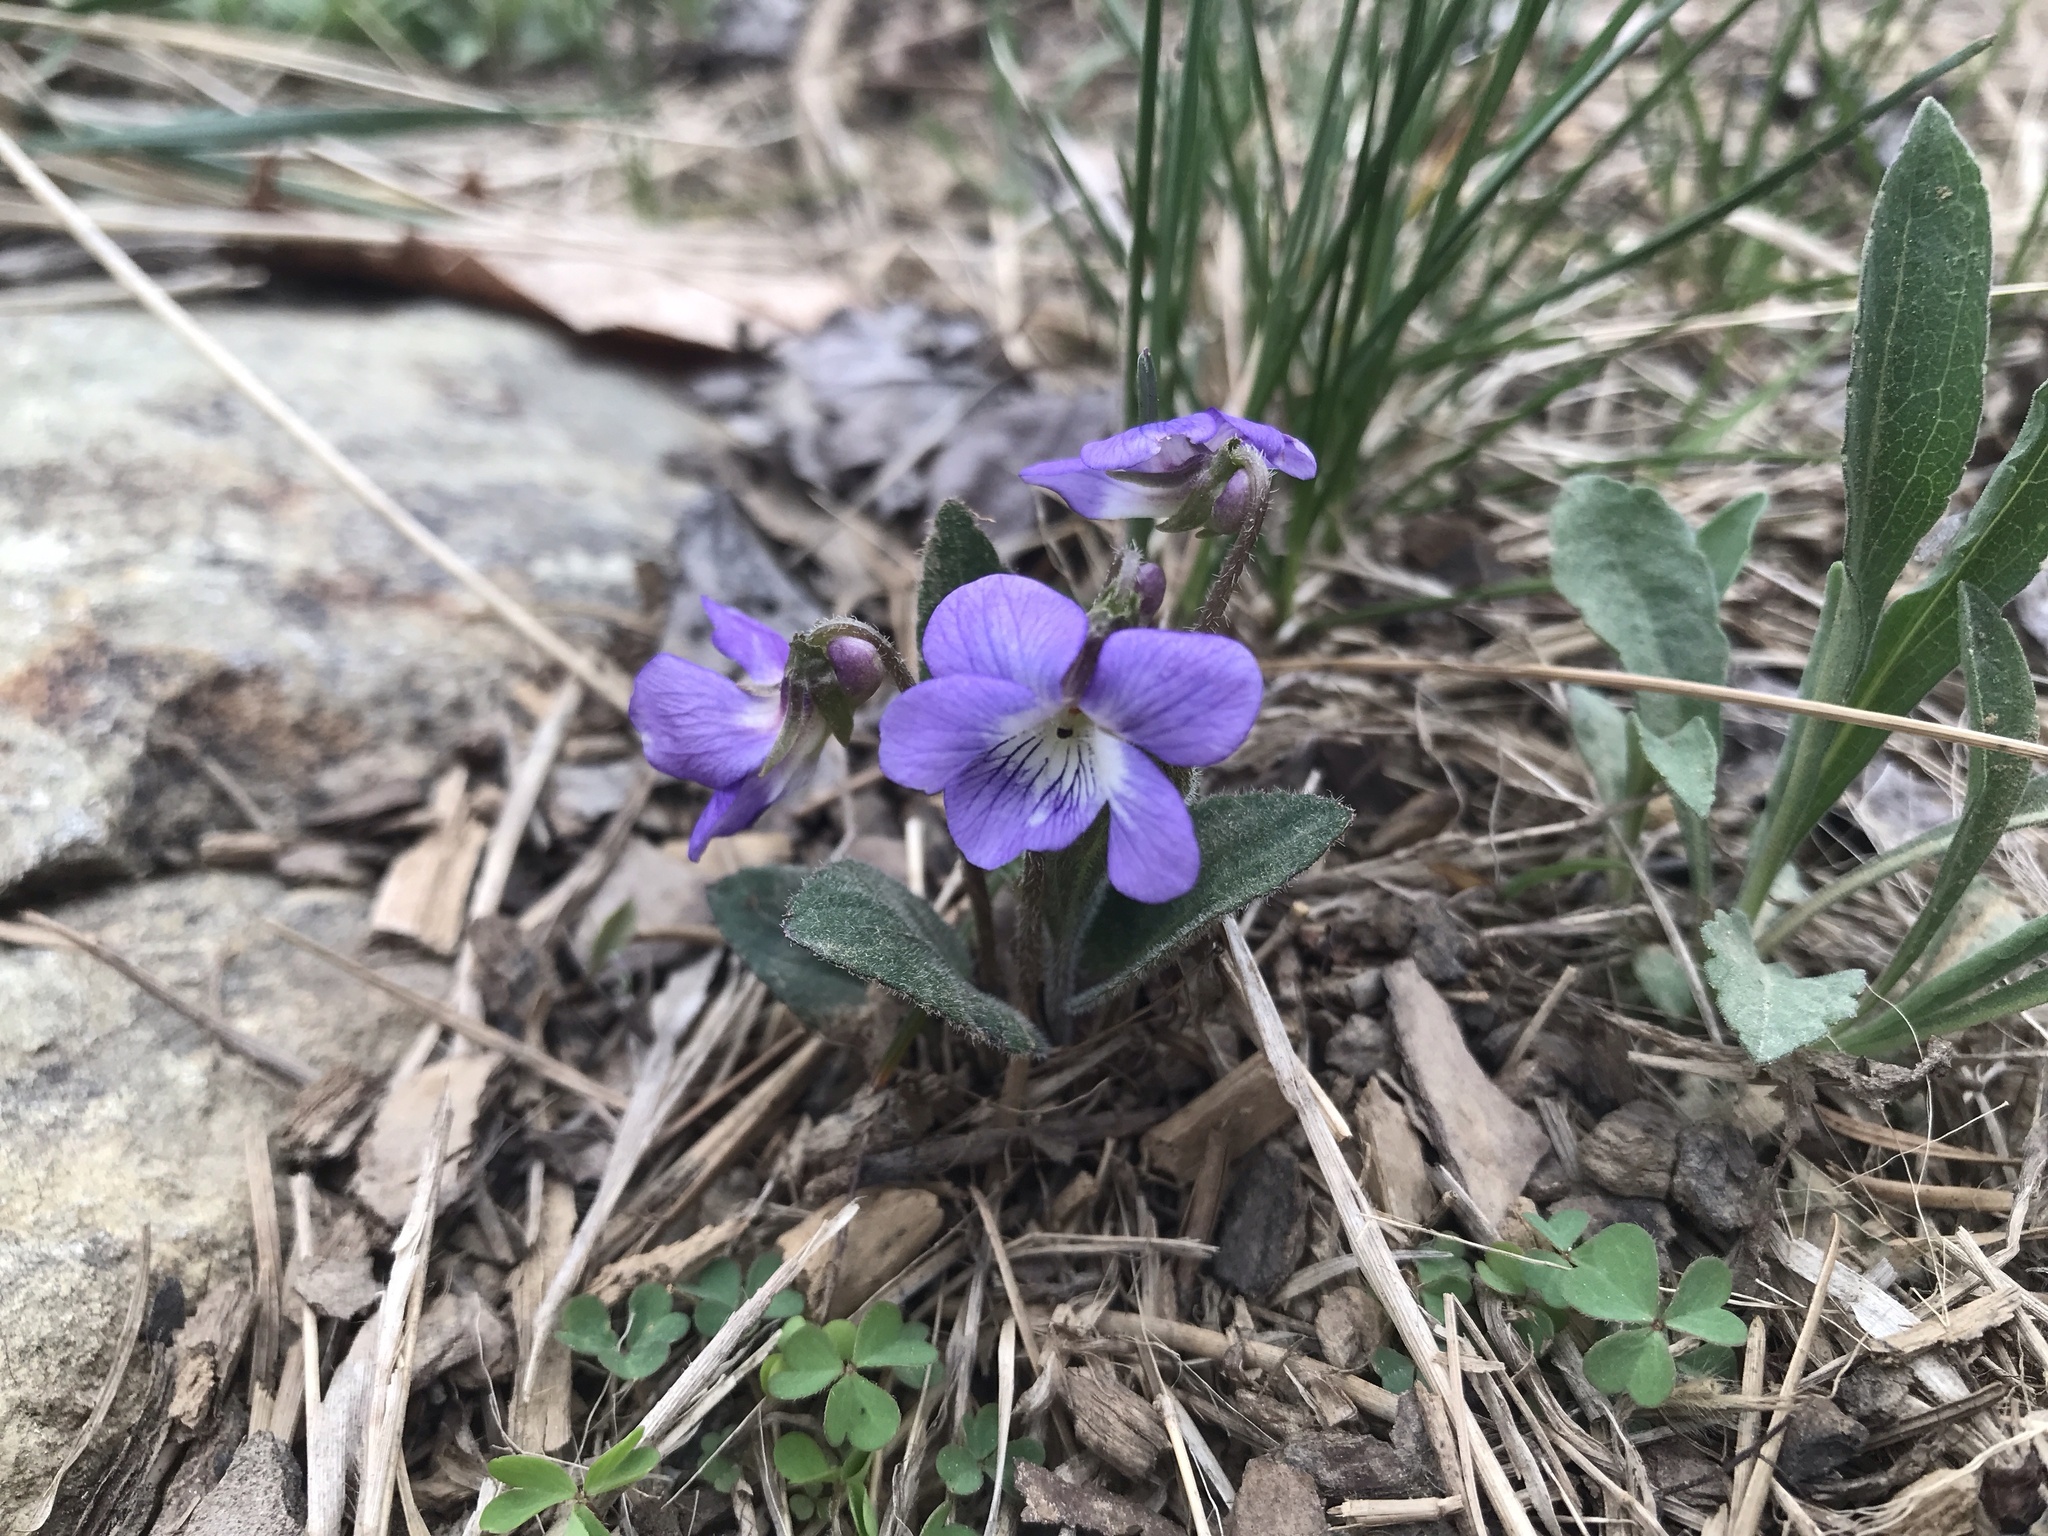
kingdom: Plantae
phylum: Tracheophyta
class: Magnoliopsida
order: Malpighiales
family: Violaceae
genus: Viola
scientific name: Viola sagittata
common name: Arrowhead violet
